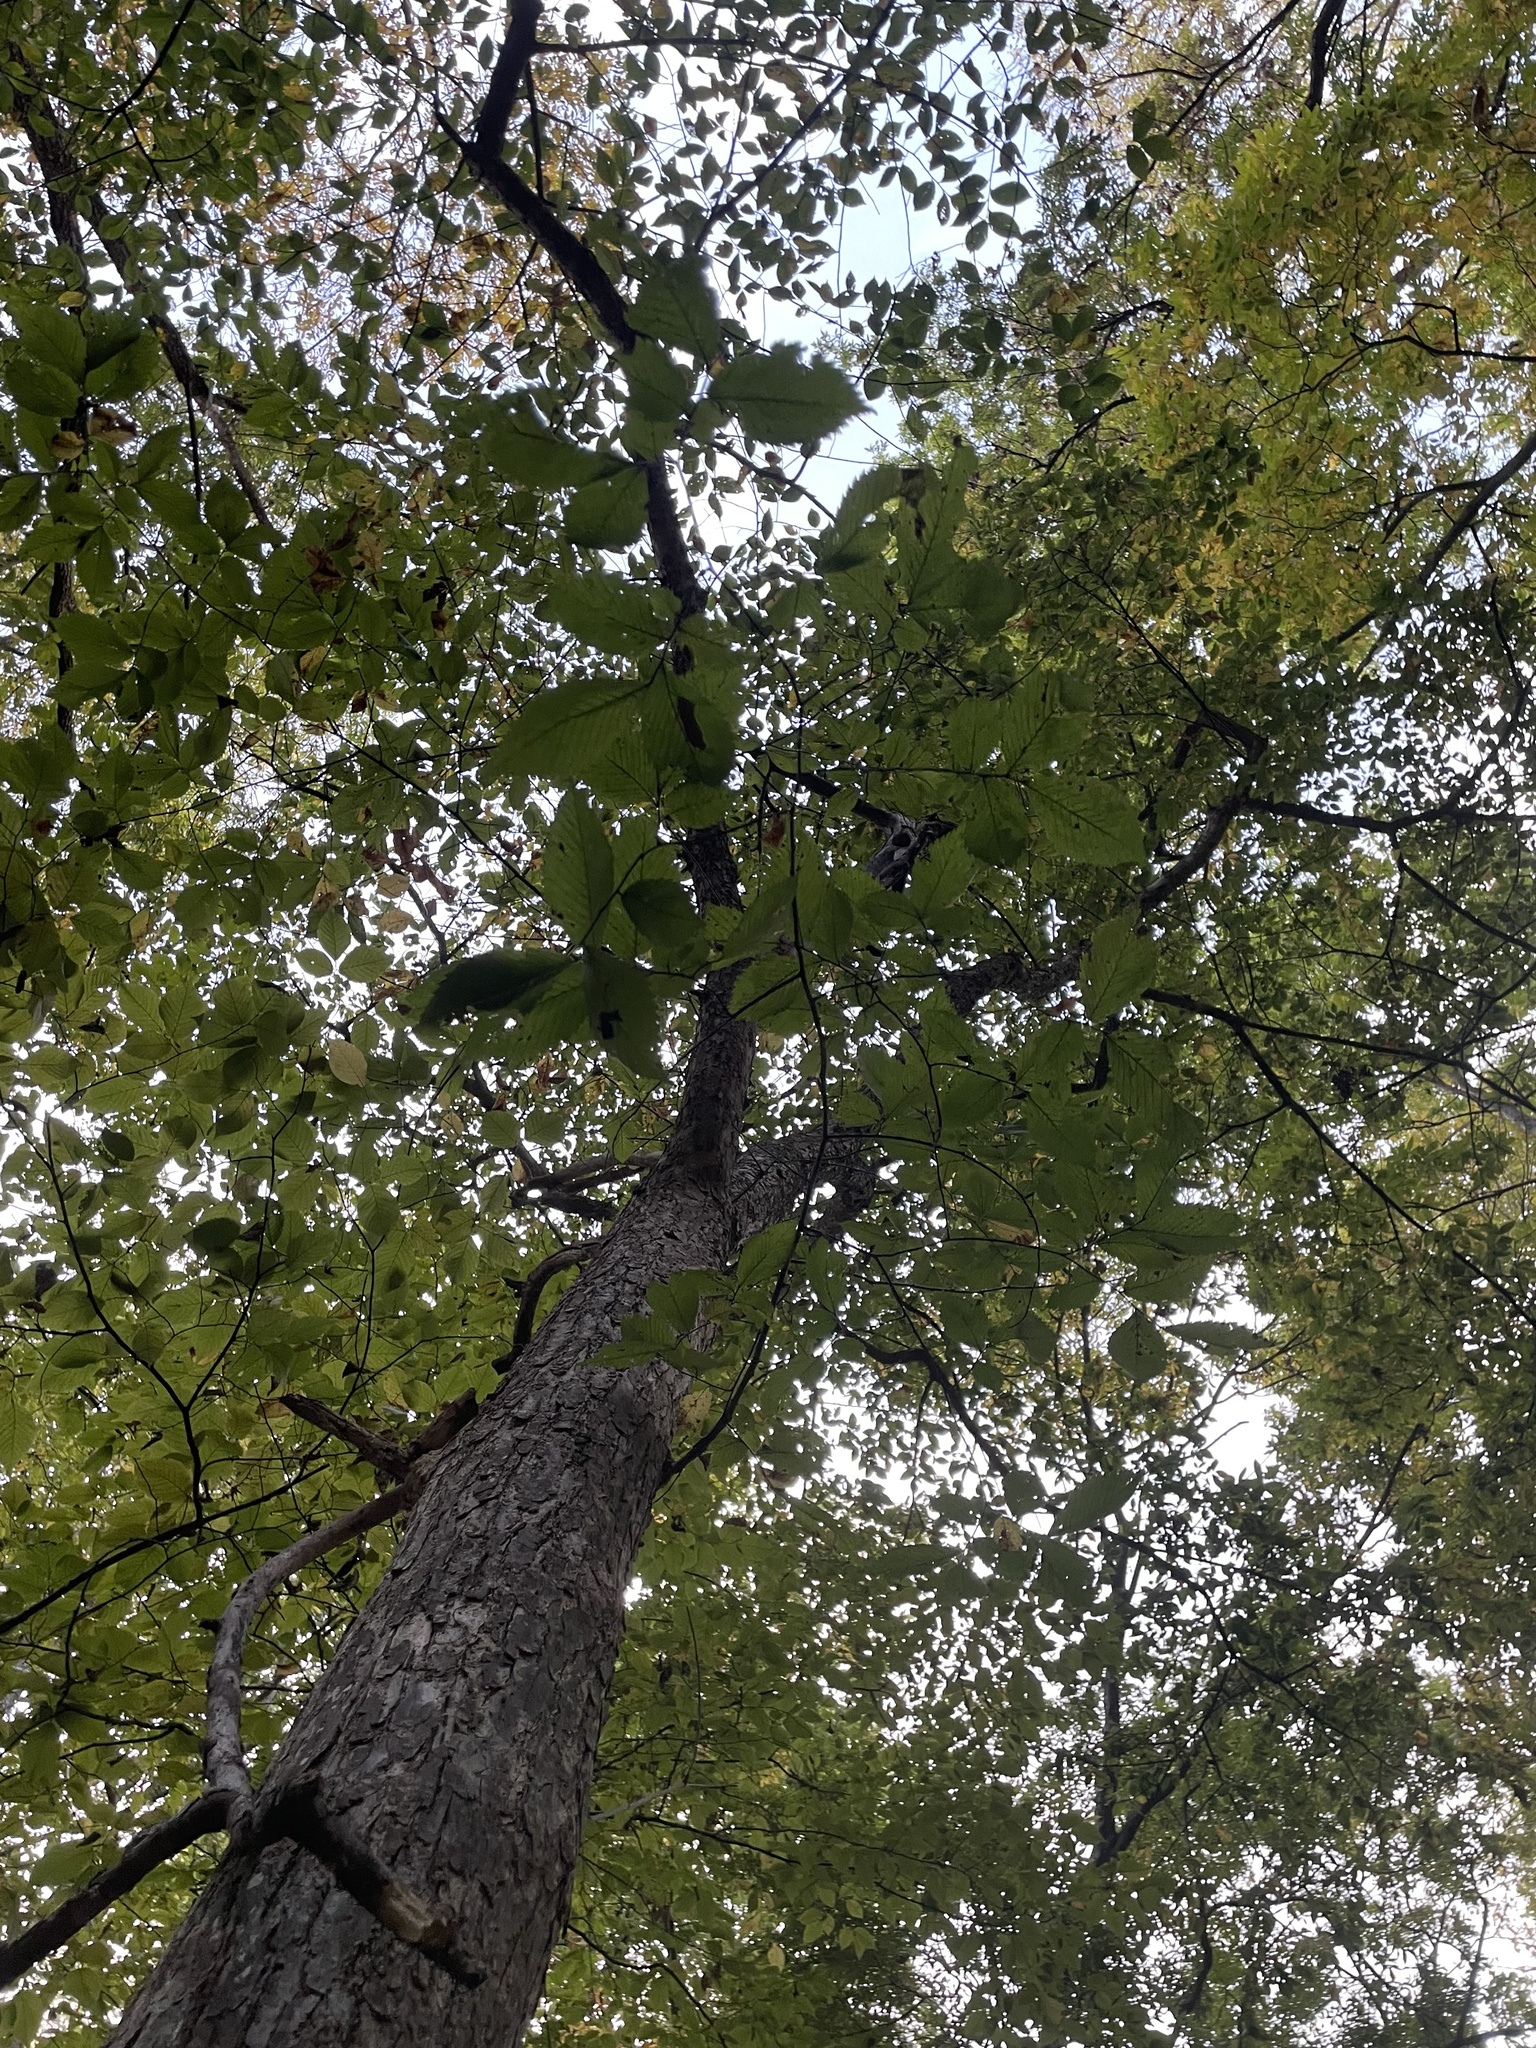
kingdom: Plantae
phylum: Tracheophyta
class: Magnoliopsida
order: Rosales
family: Ulmaceae
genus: Ulmus
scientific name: Ulmus rubra
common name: Slippery elm
